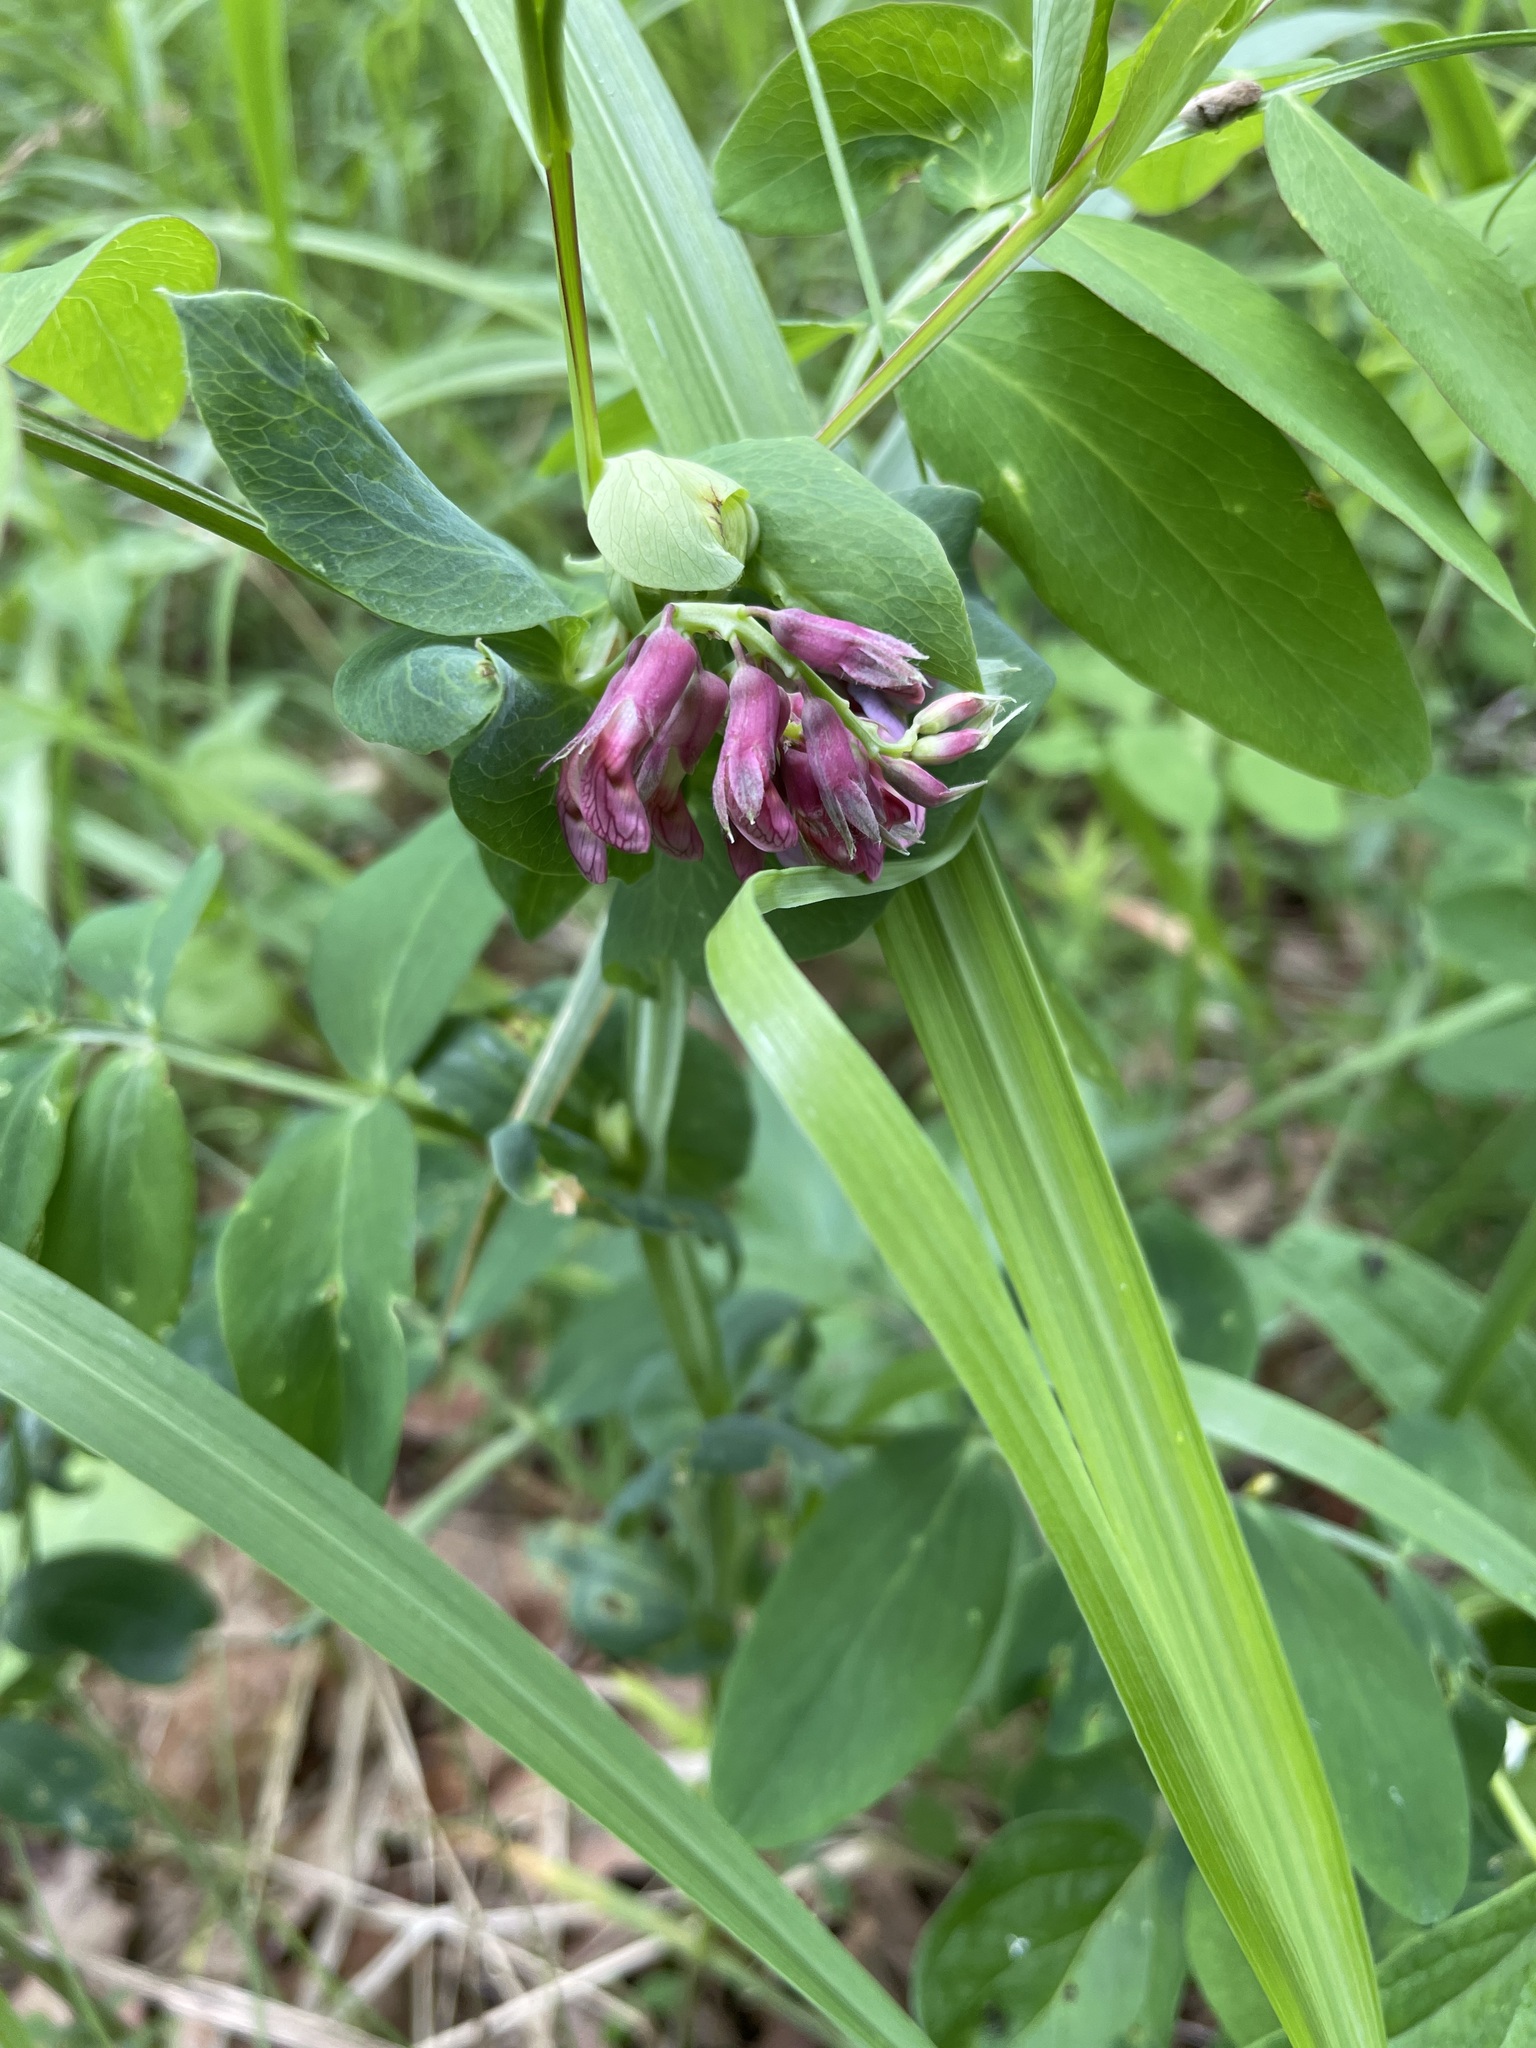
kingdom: Plantae
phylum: Tracheophyta
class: Magnoliopsida
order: Fabales
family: Fabaceae
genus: Lathyrus
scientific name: Lathyrus pisiformis
